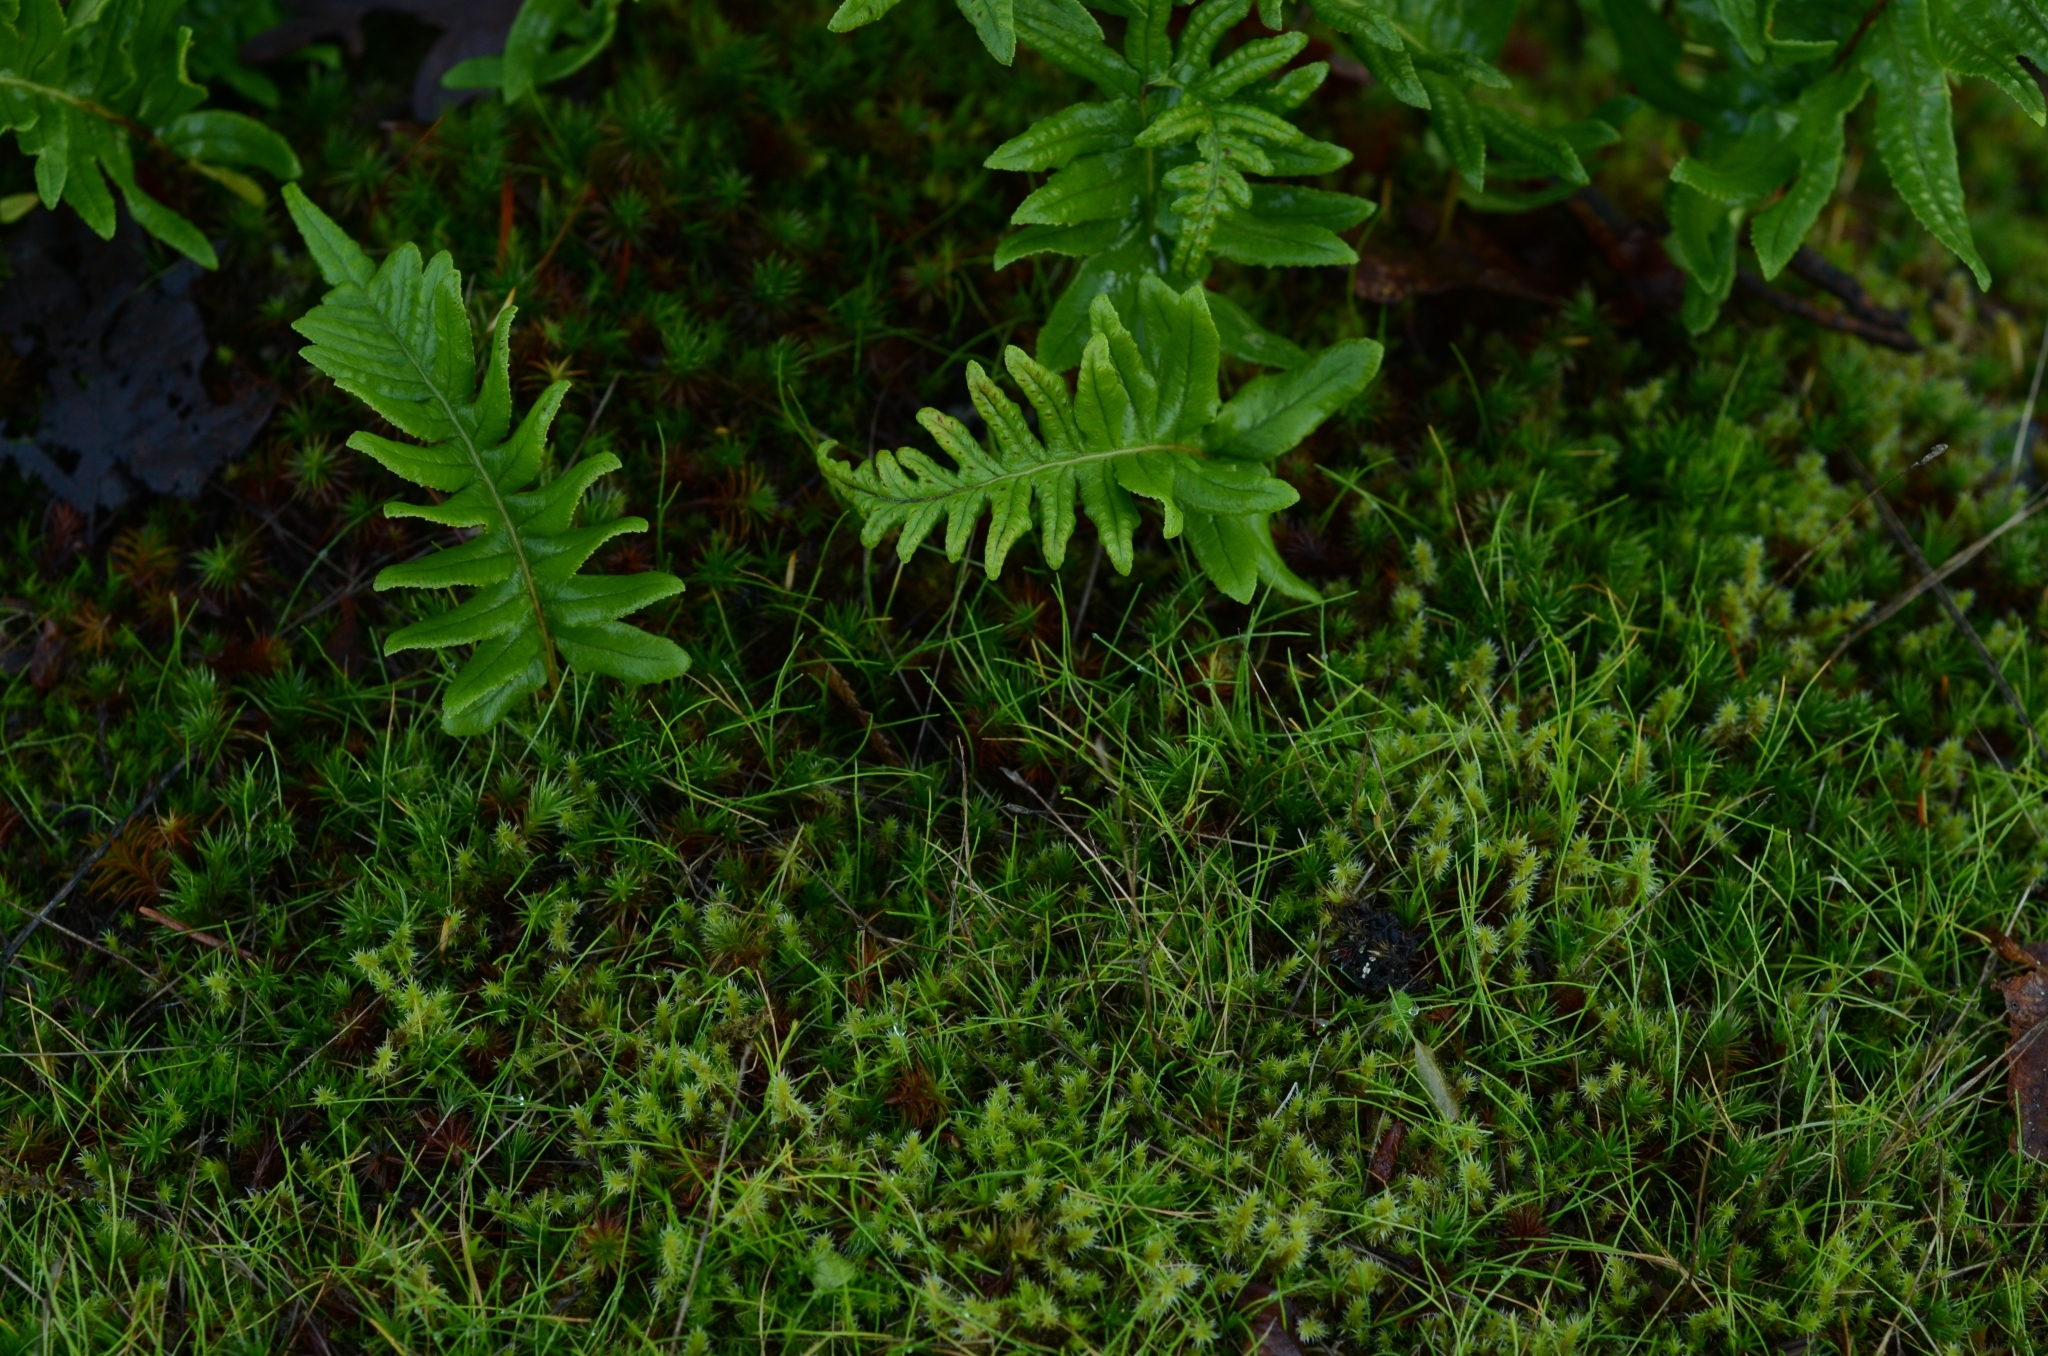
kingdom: Plantae
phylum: Tracheophyta
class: Polypodiopsida
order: Polypodiales
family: Polypodiaceae
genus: Polypodium
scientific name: Polypodium glycyrrhiza
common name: Licorice fern
